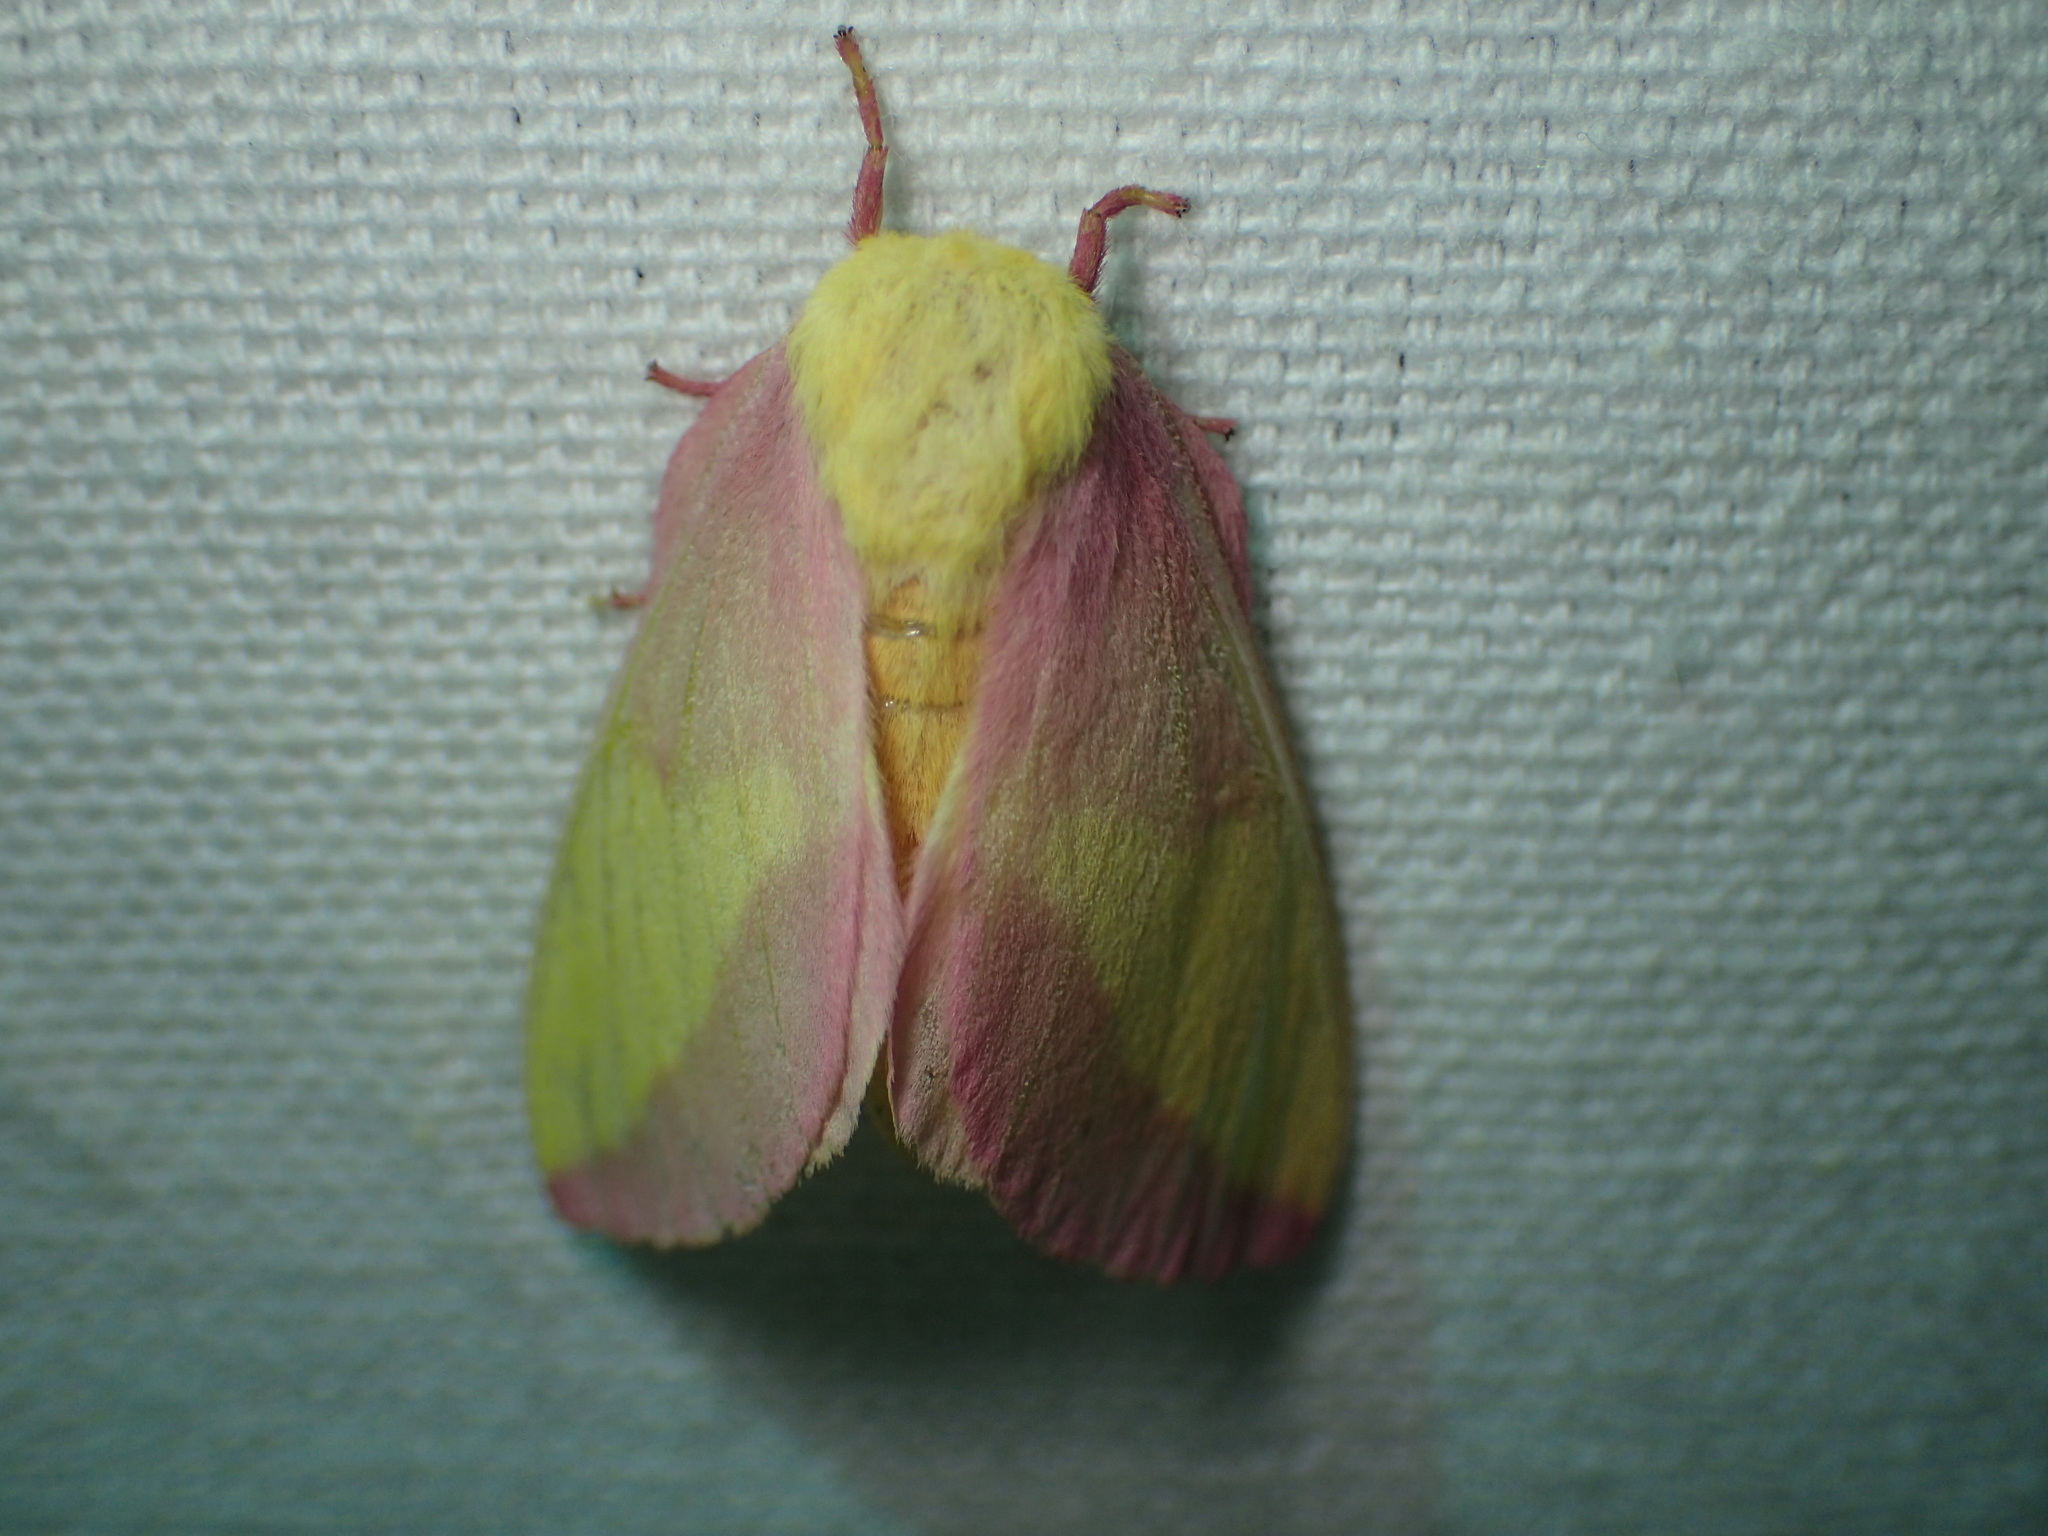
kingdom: Animalia
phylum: Arthropoda
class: Insecta
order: Lepidoptera
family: Saturniidae
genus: Dryocampa
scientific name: Dryocampa rubicunda
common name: Rosy maple moth
